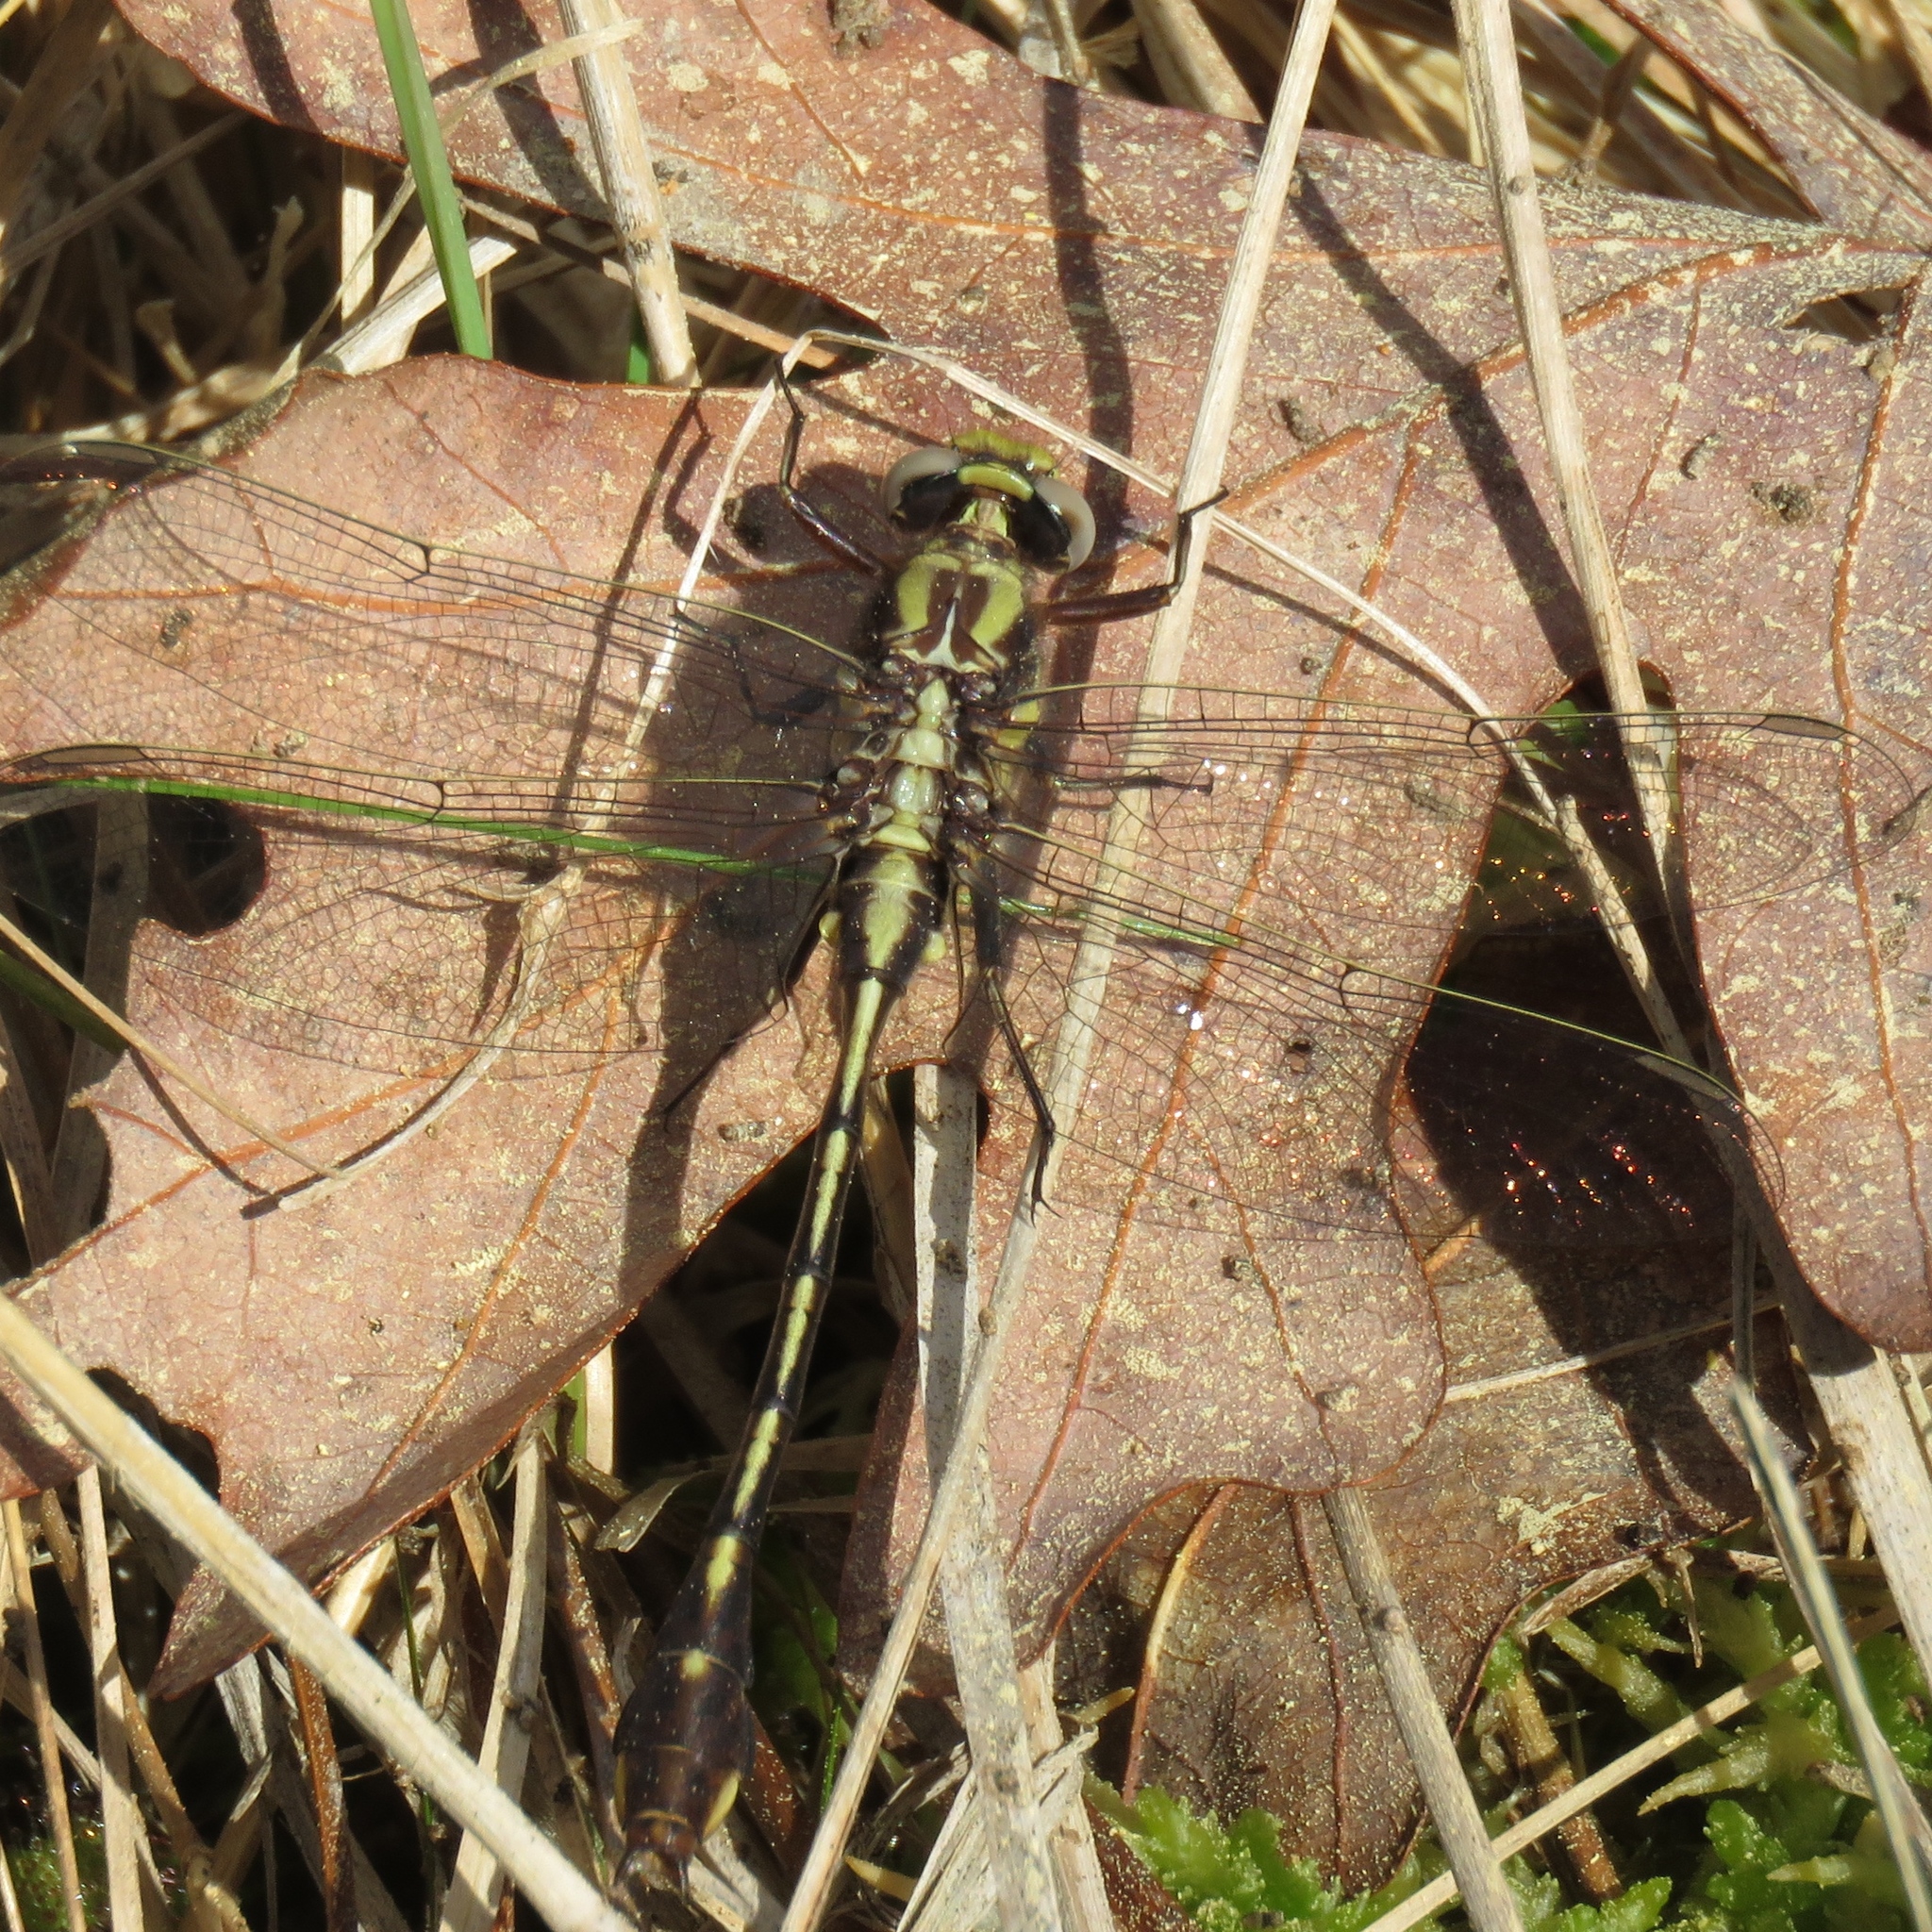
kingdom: Animalia
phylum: Arthropoda
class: Insecta
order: Odonata
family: Gomphidae
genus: Gomphurus
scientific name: Gomphurus hybridus
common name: Cocoa clubtail
